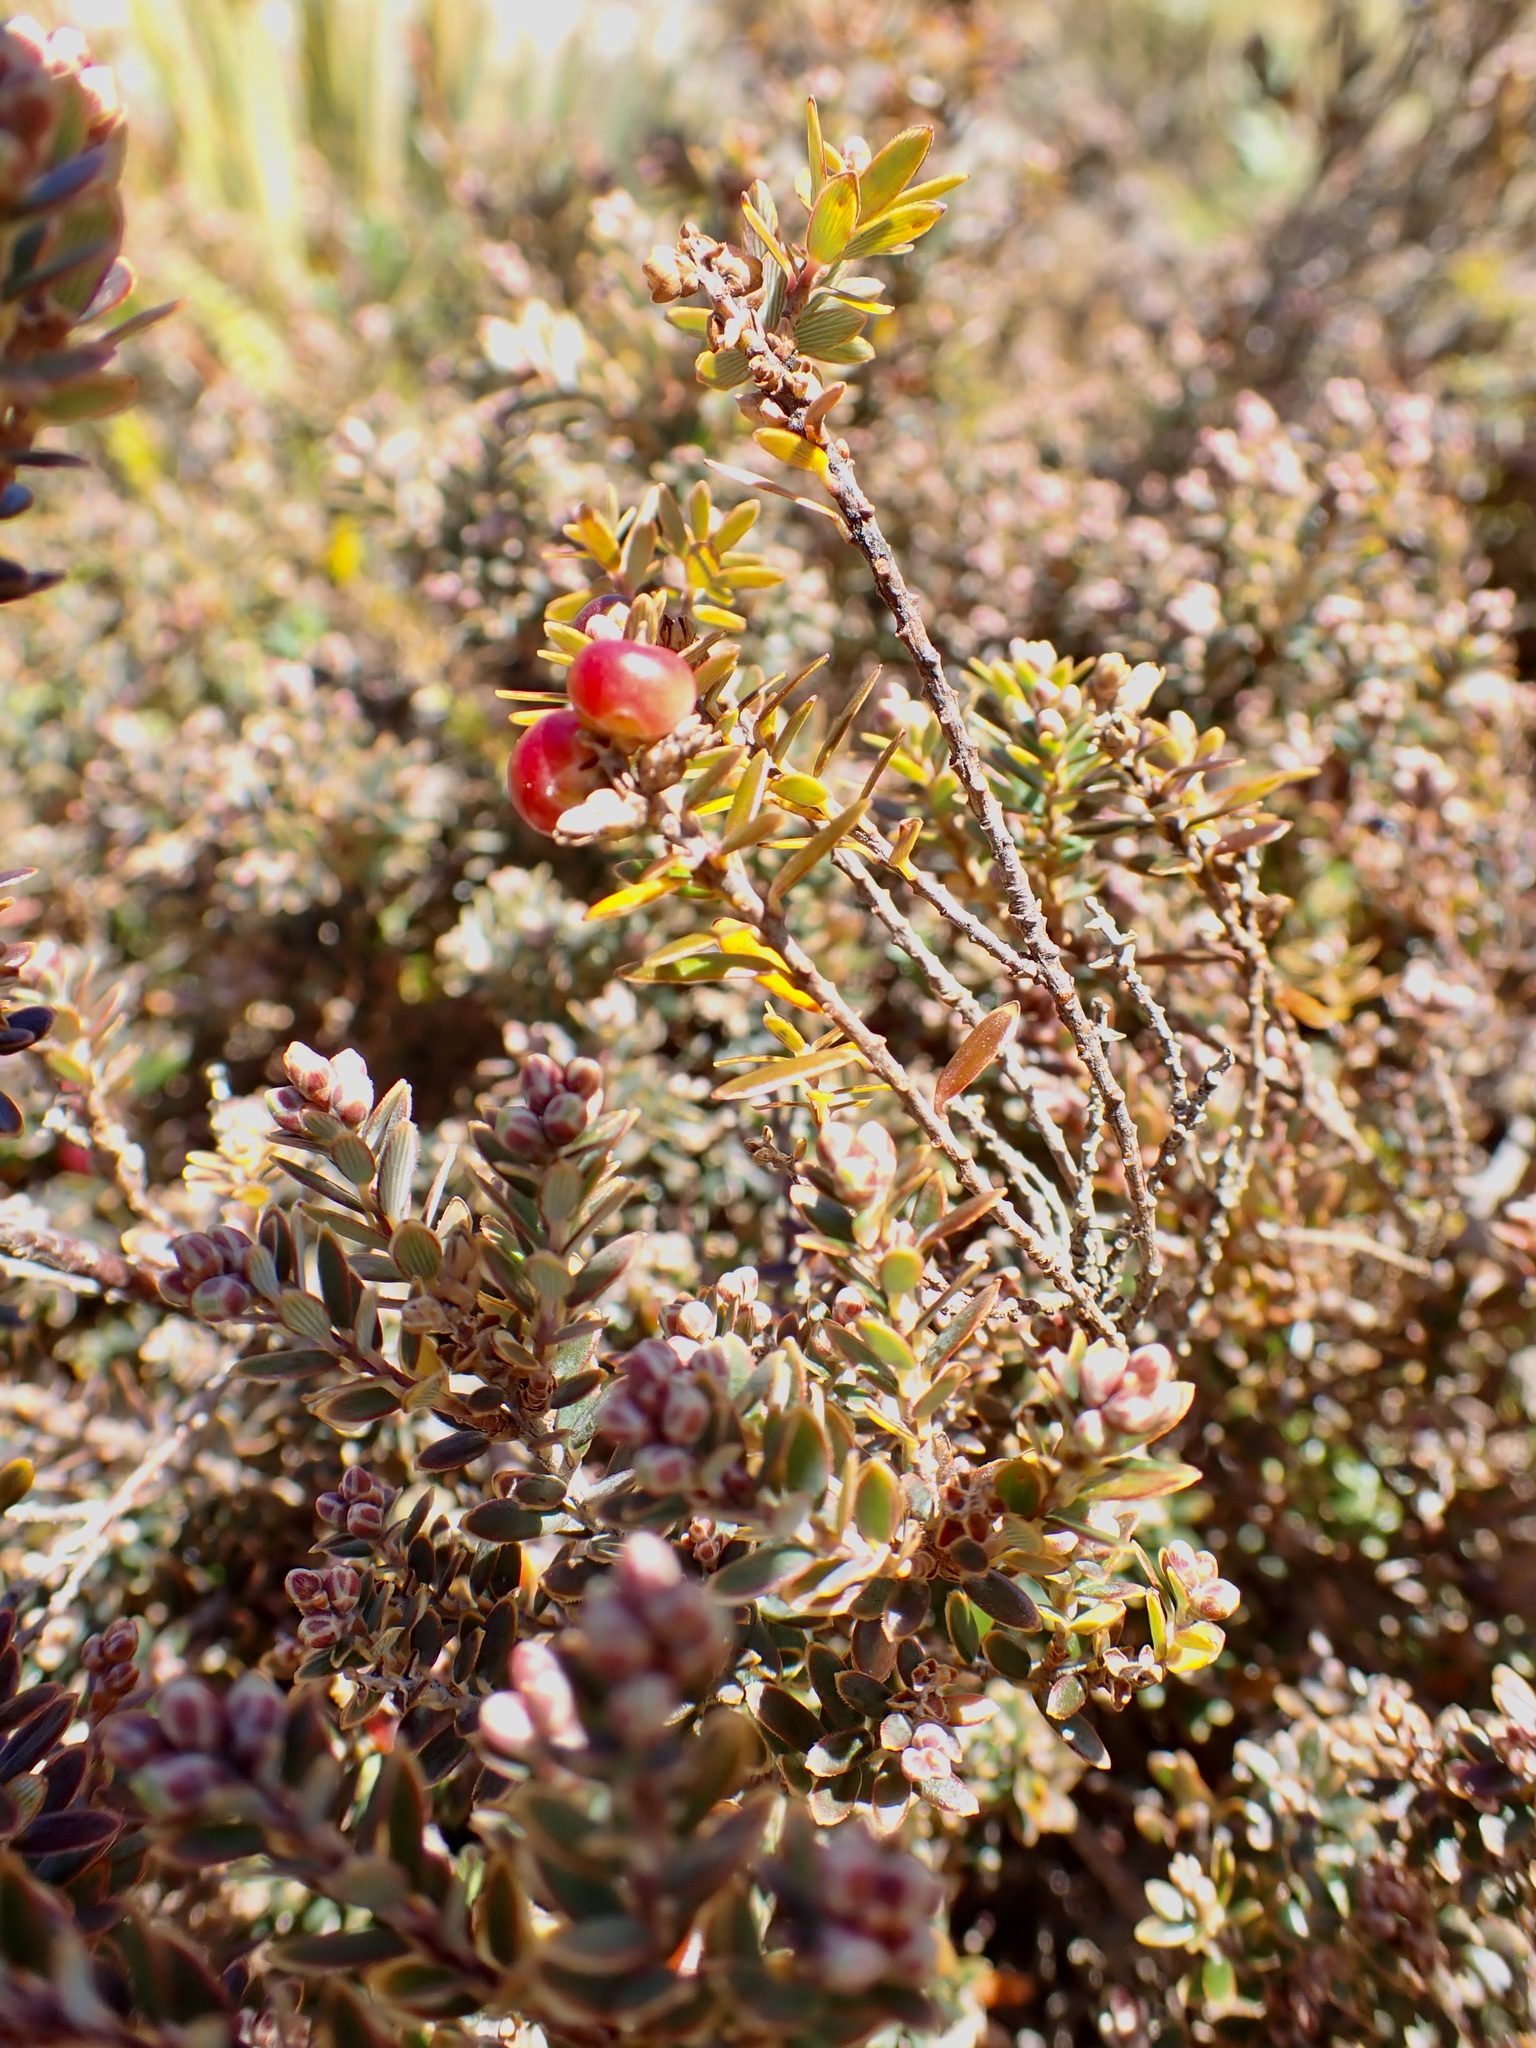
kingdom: Plantae
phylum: Tracheophyta
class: Magnoliopsida
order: Ericales
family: Ericaceae
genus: Acrothamnus
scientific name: Acrothamnus colensoi
